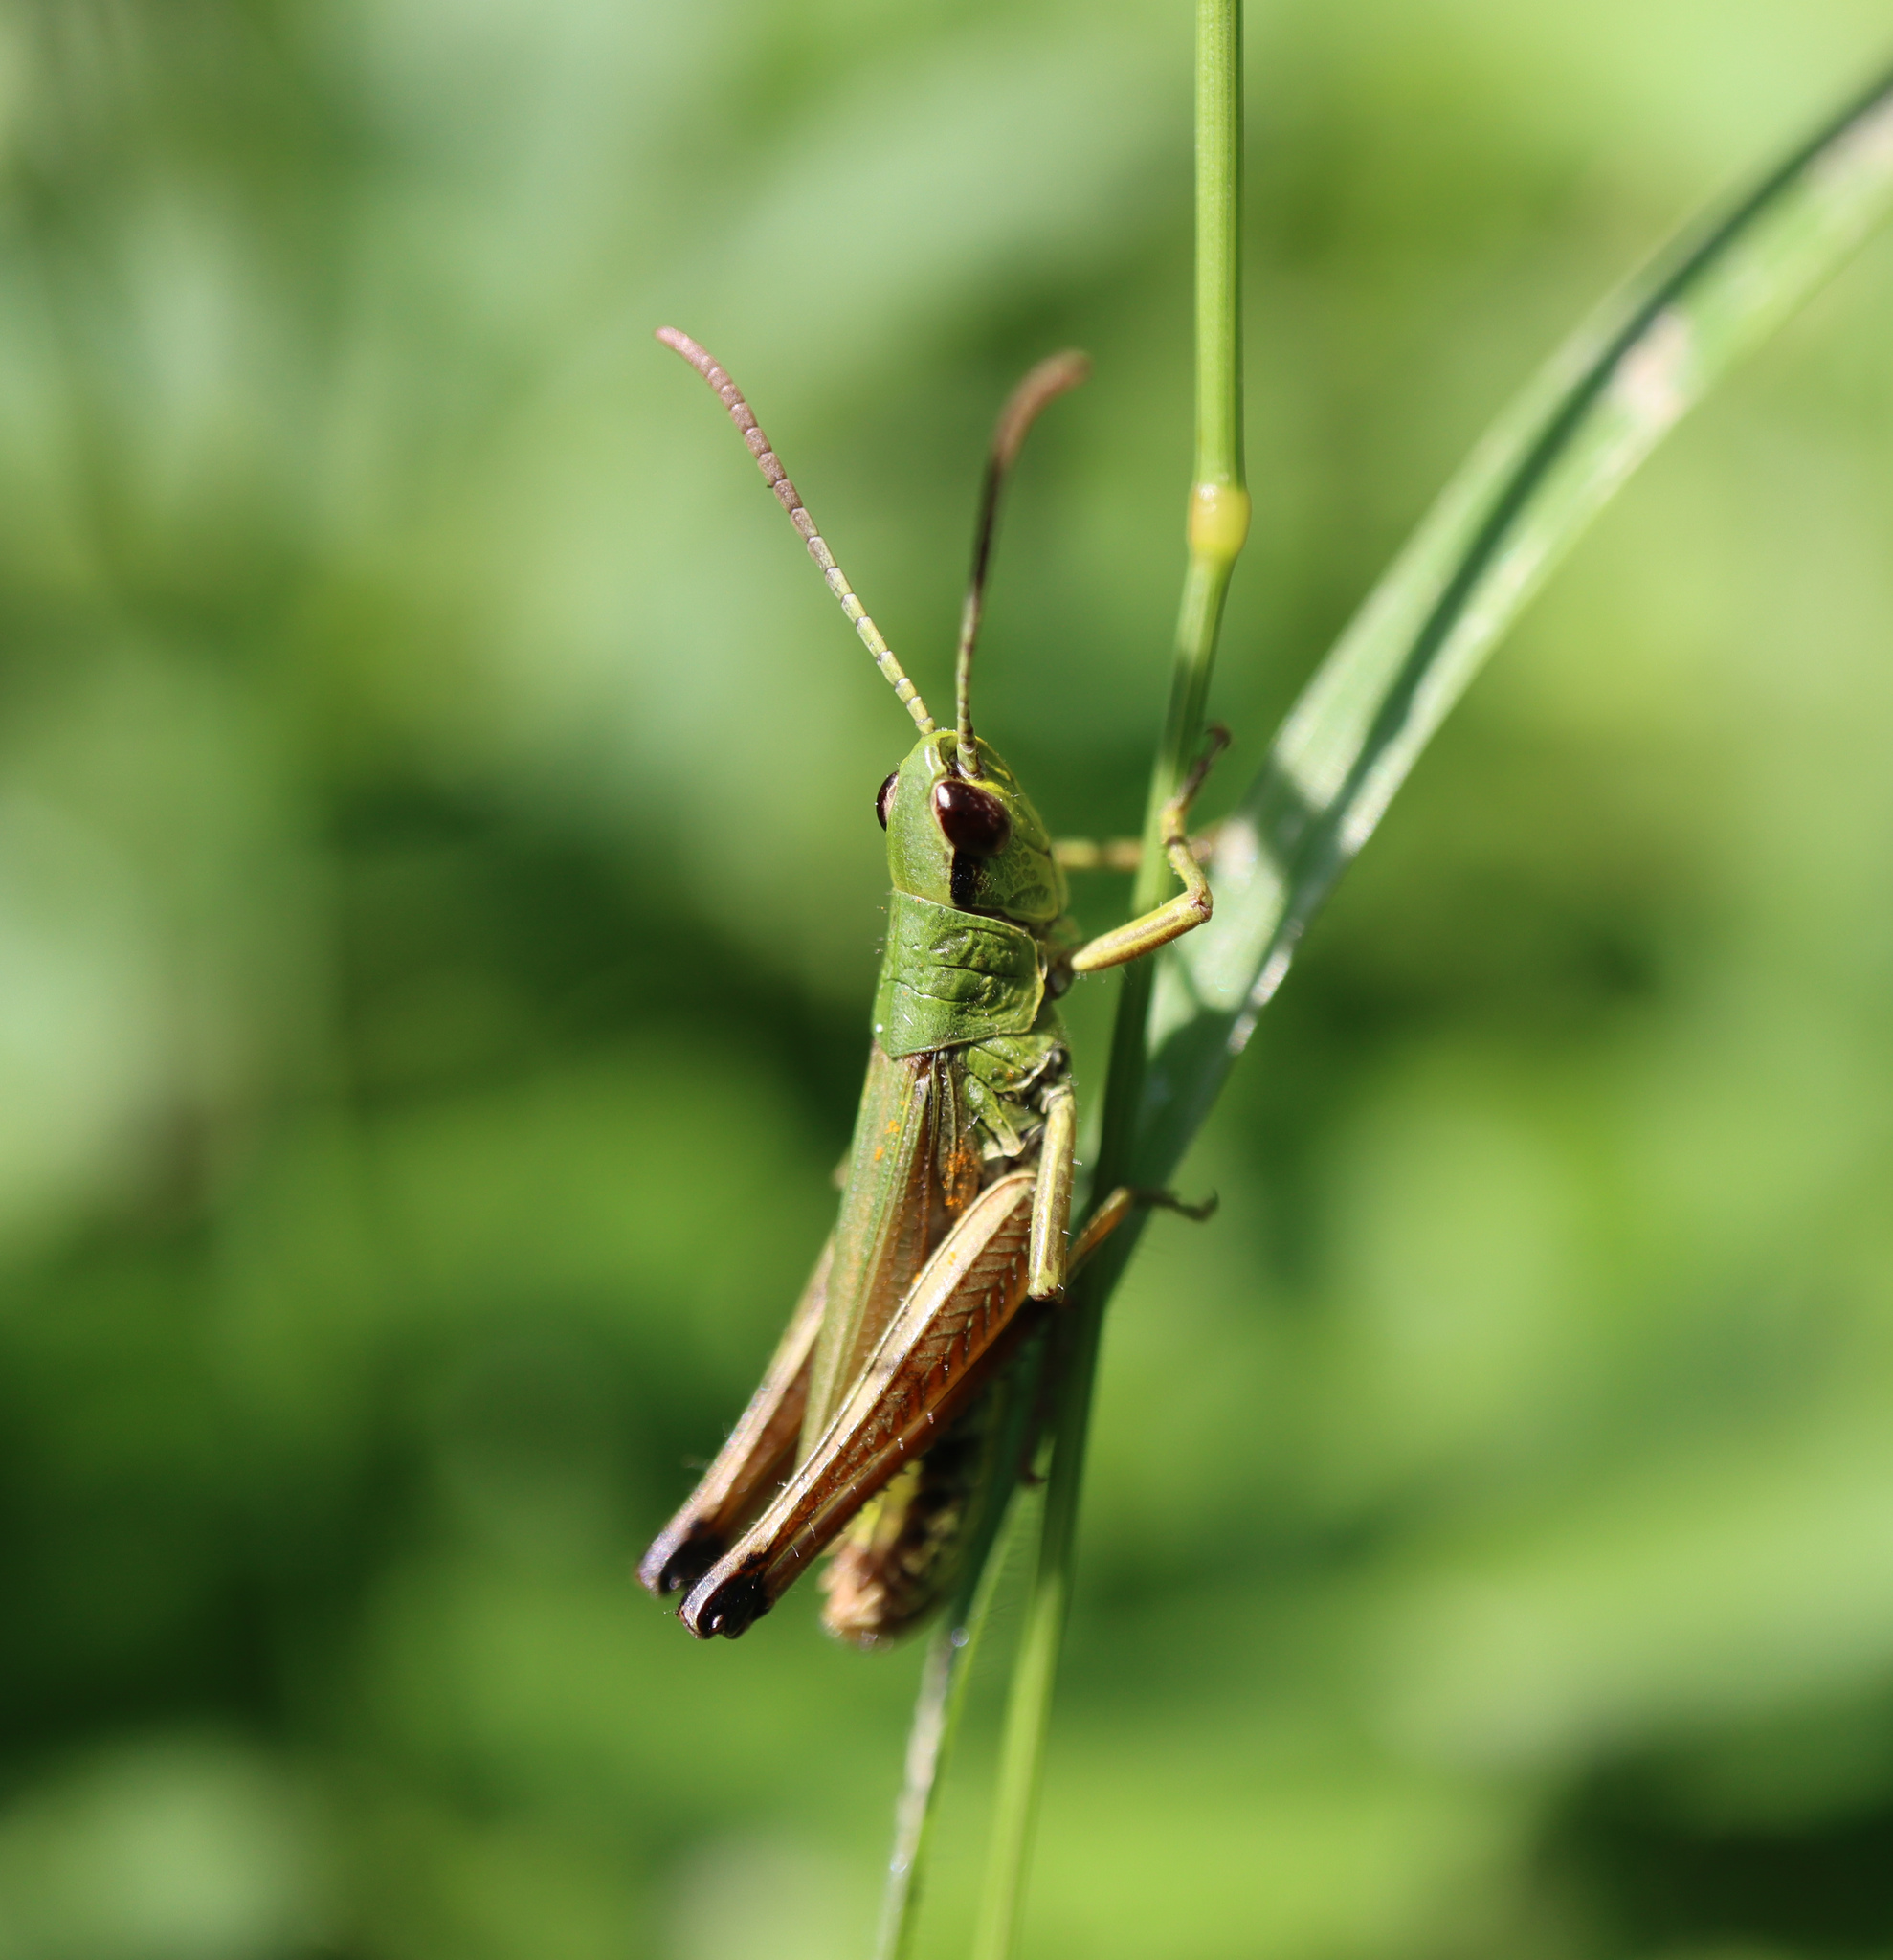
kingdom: Animalia
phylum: Arthropoda
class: Insecta
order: Orthoptera
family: Acrididae
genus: Pseudochorthippus
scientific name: Pseudochorthippus parallelus
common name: Meadow grasshopper
